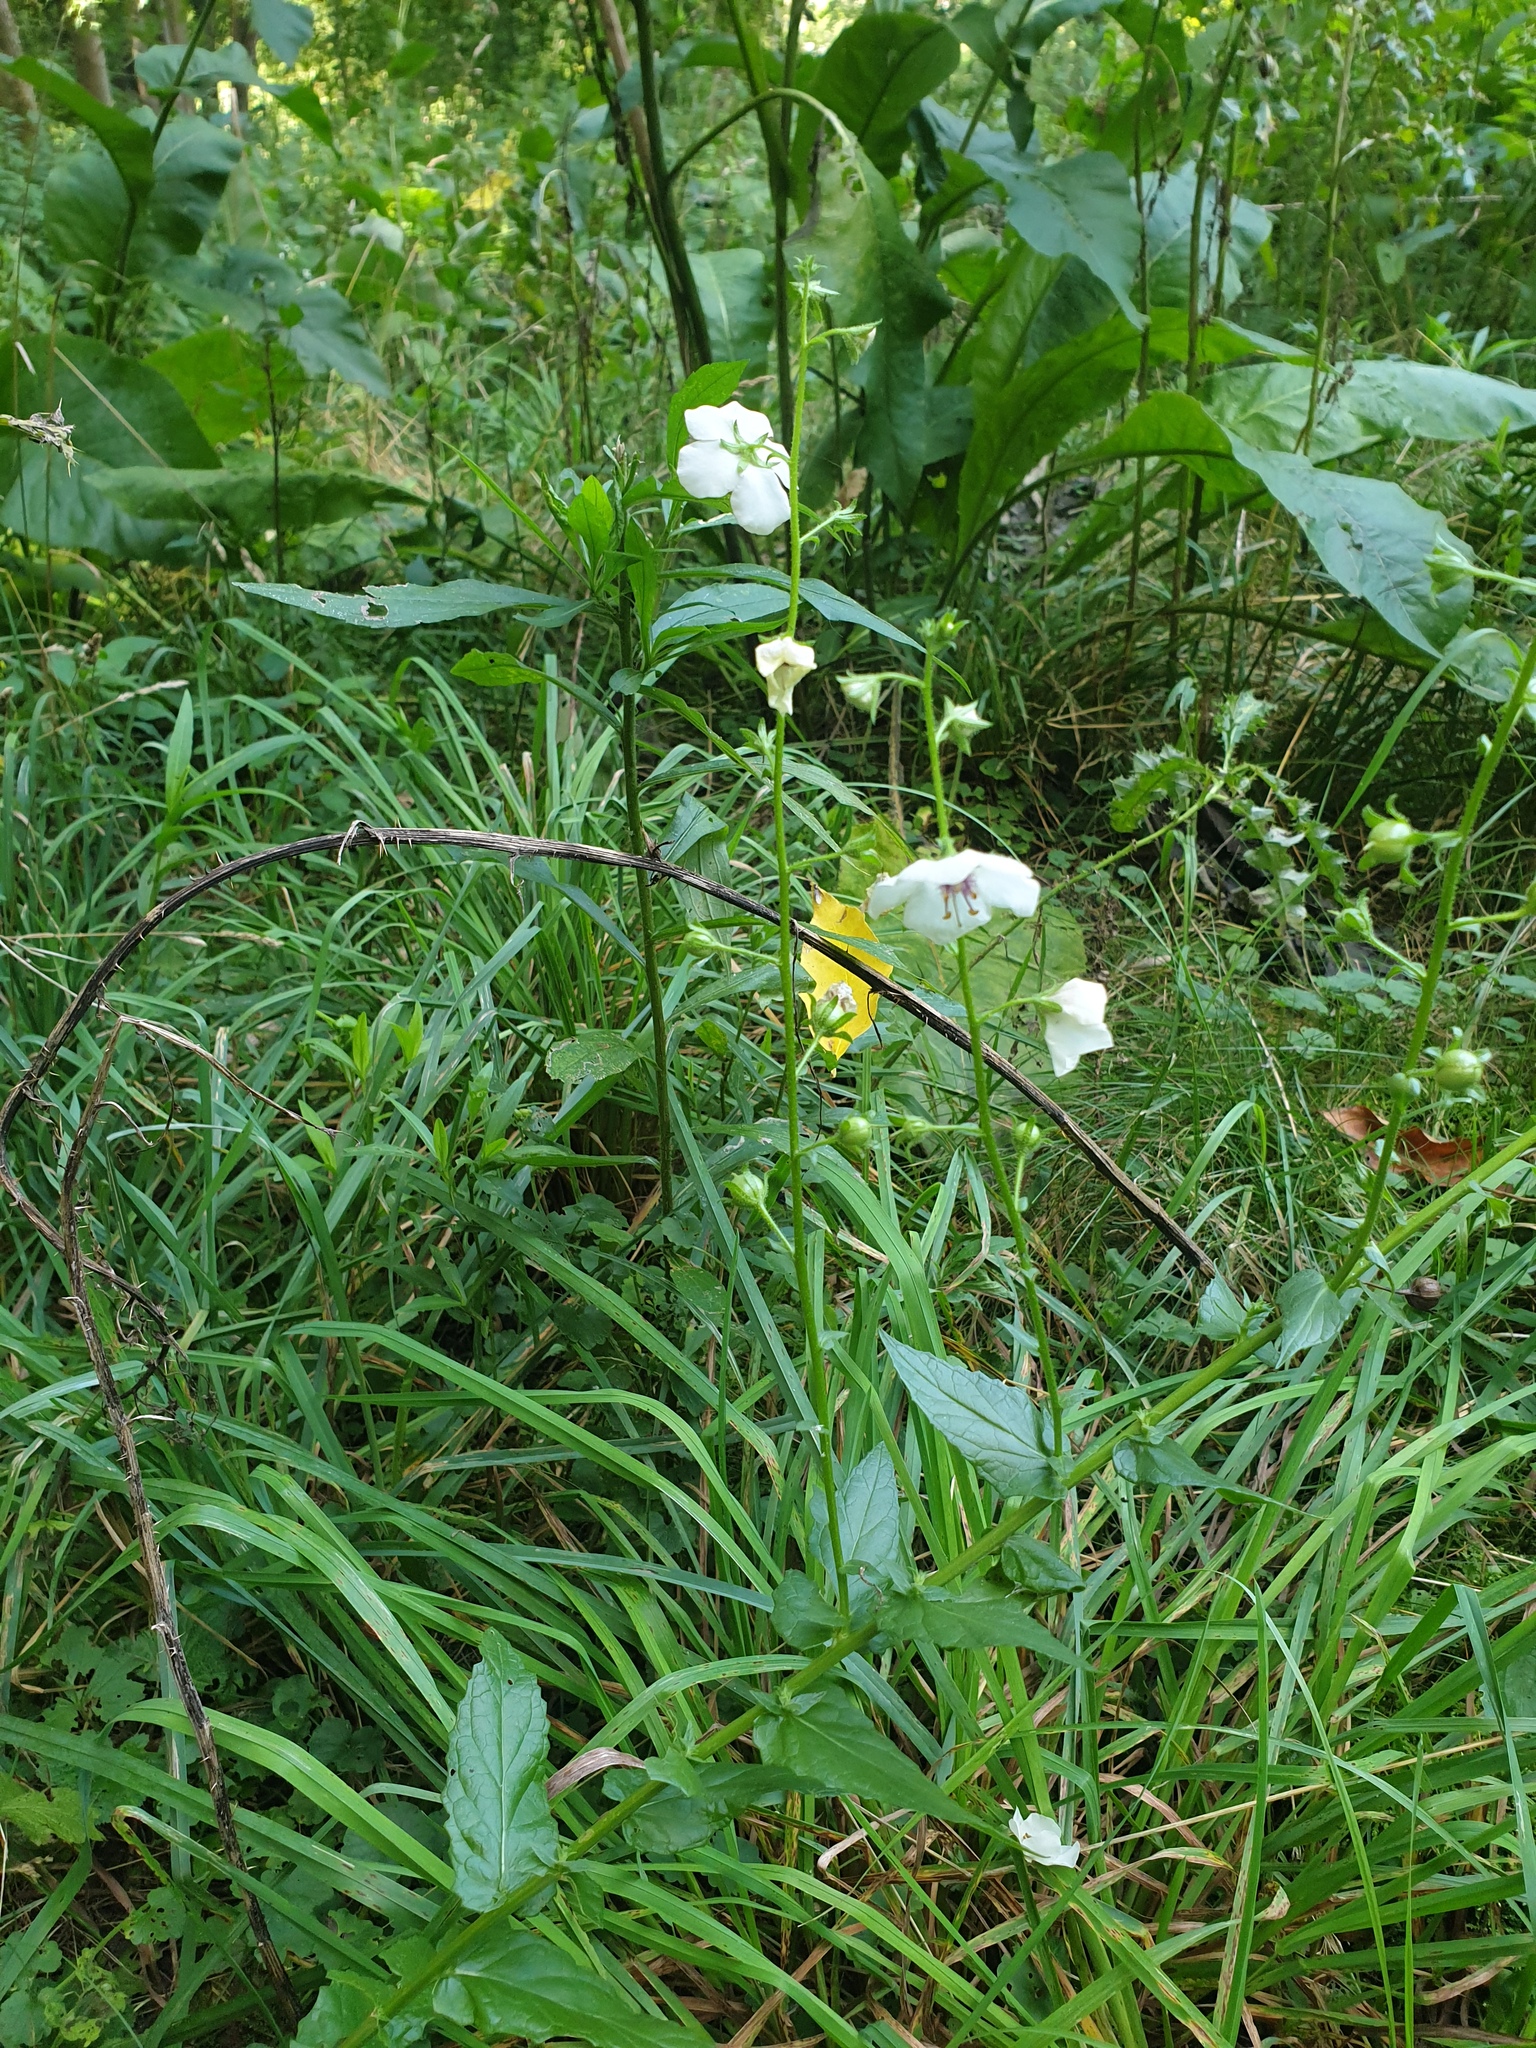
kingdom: Plantae
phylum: Tracheophyta
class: Magnoliopsida
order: Lamiales
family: Scrophulariaceae
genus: Verbascum
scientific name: Verbascum blattaria
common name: Moth mullein
